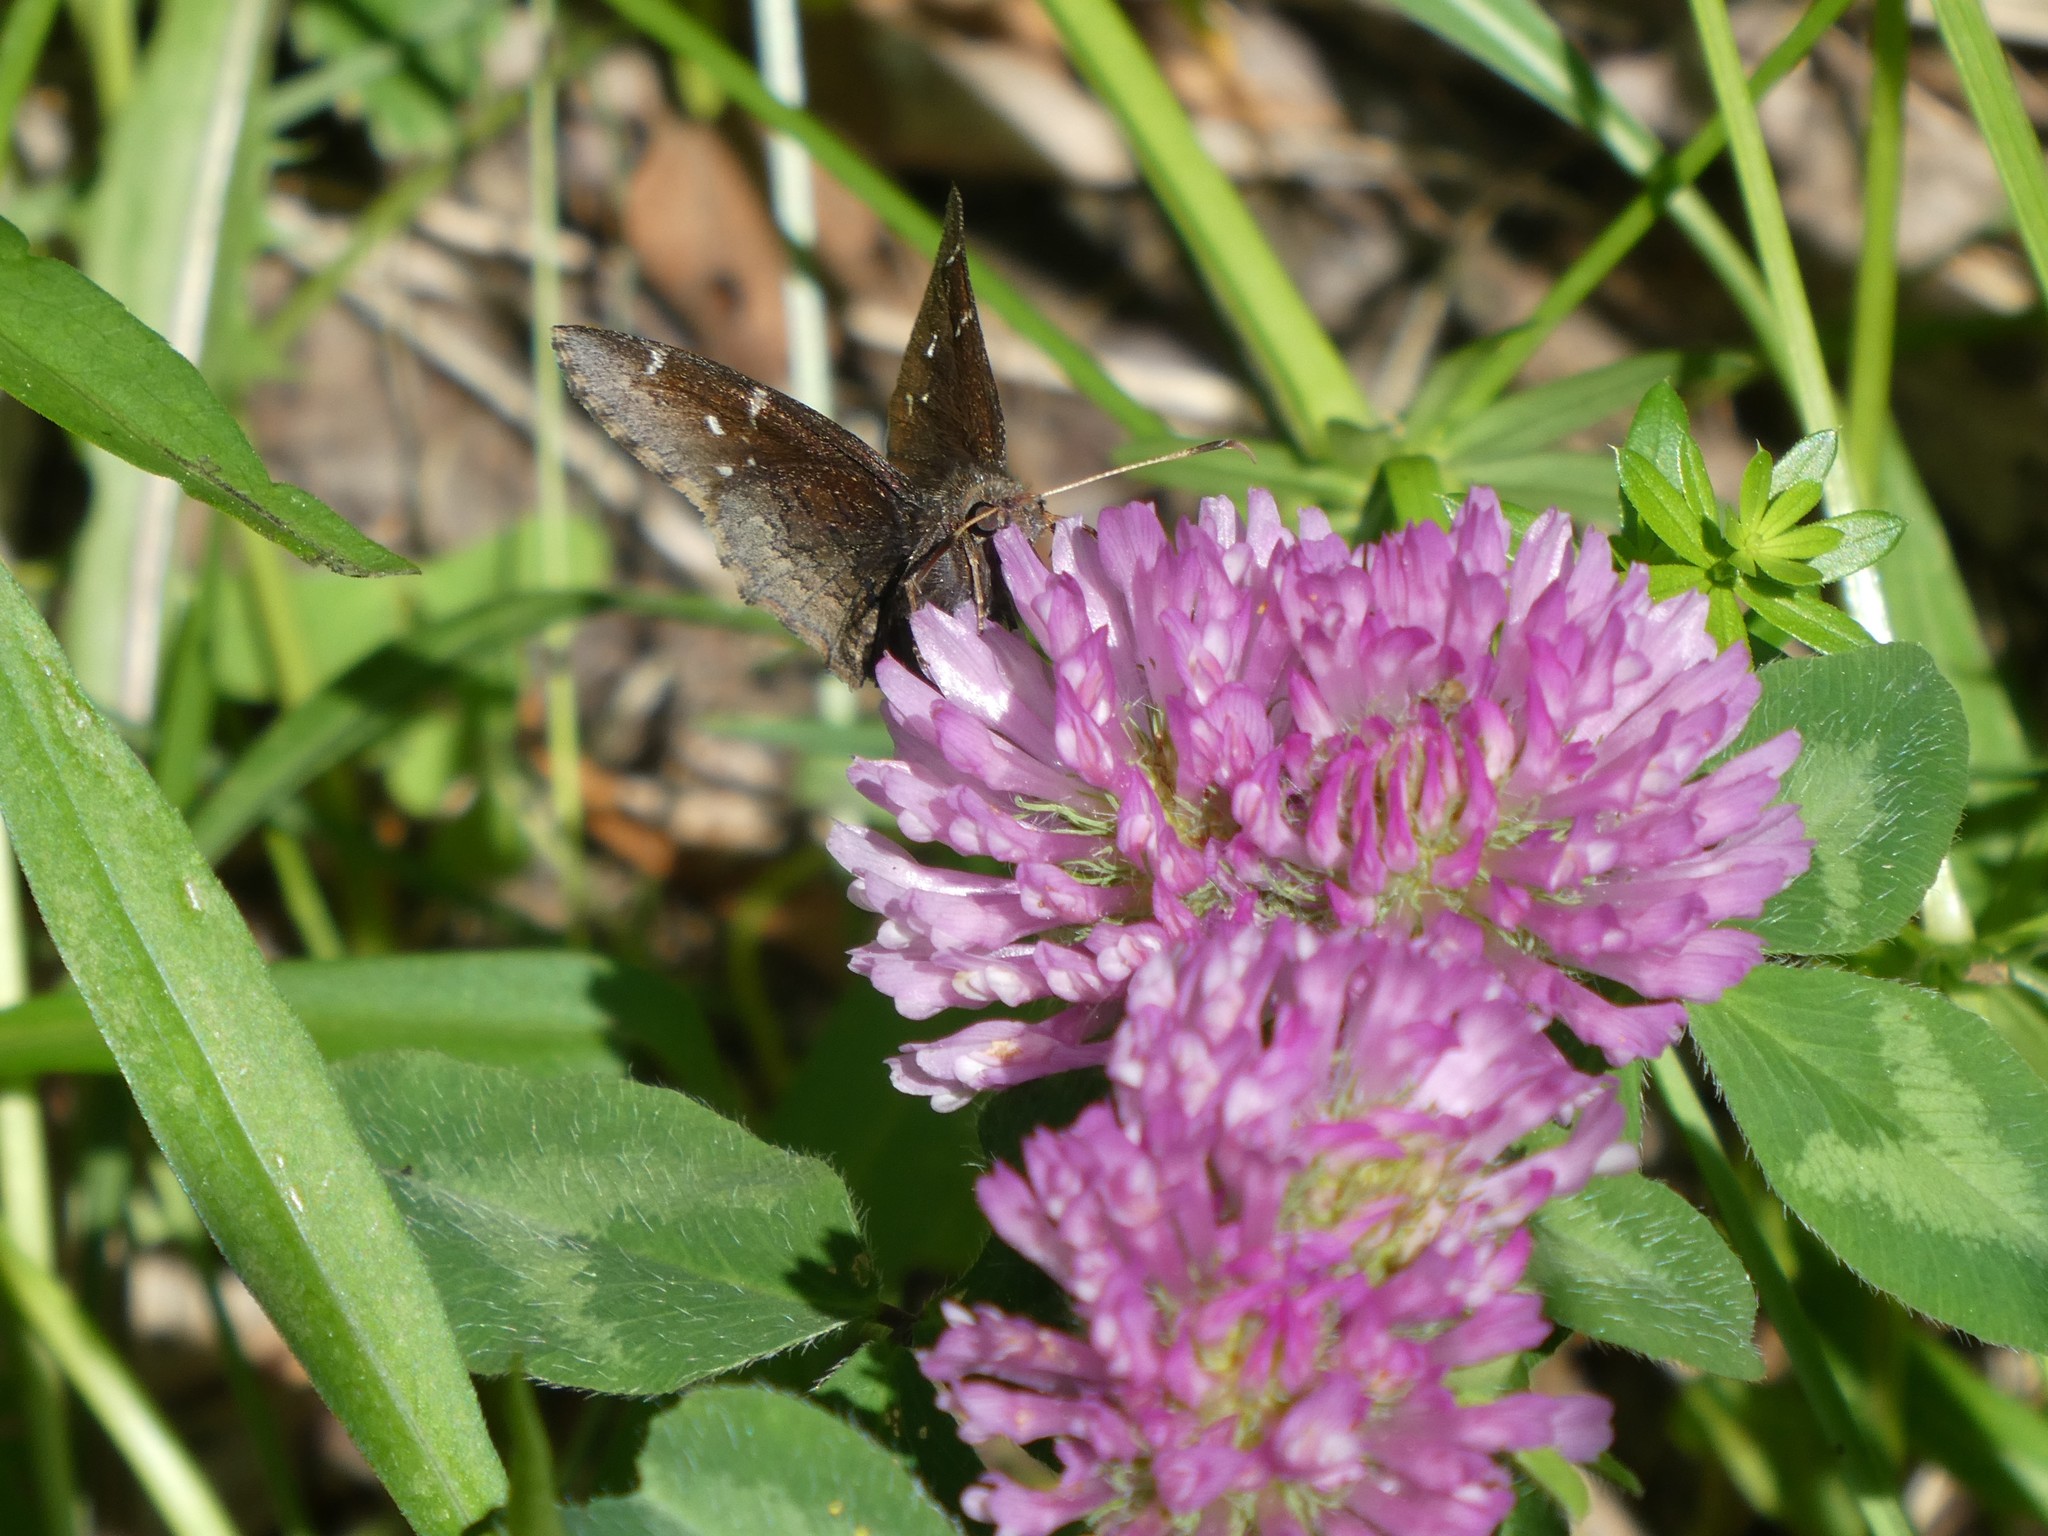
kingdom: Plantae
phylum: Tracheophyta
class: Magnoliopsida
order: Fabales
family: Fabaceae
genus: Trifolium
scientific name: Trifolium pratense
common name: Red clover
